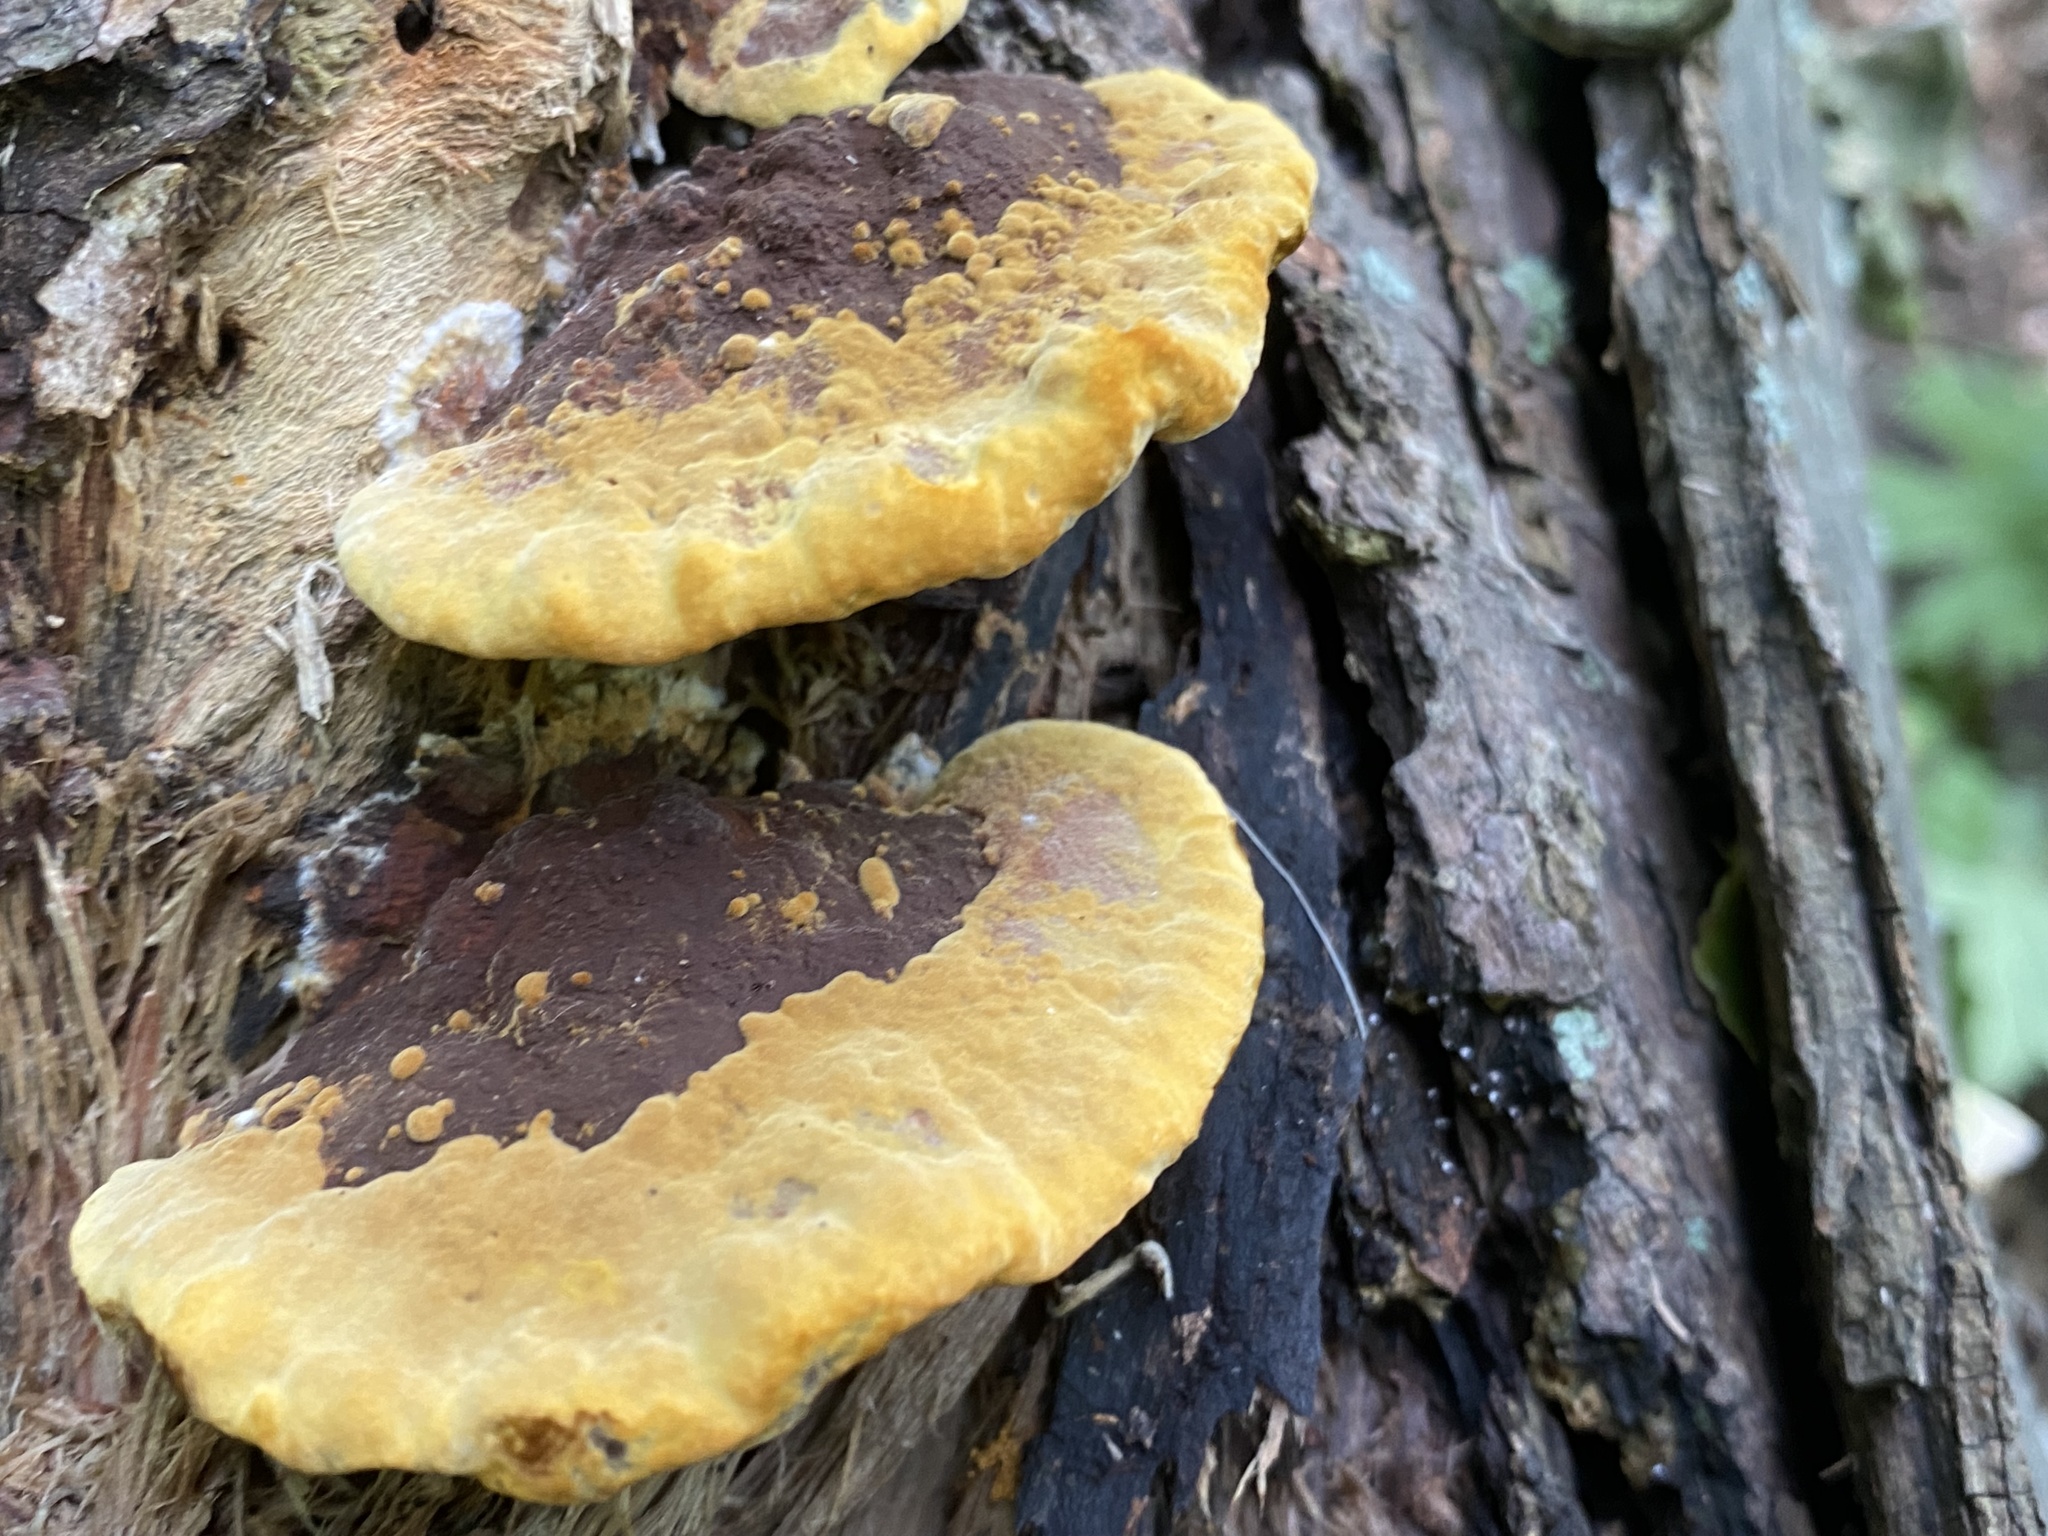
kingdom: Fungi
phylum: Basidiomycota
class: Agaricomycetes
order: Hymenochaetales
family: Hymenochaetaceae
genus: Phellinus
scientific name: Phellinus gilvus
